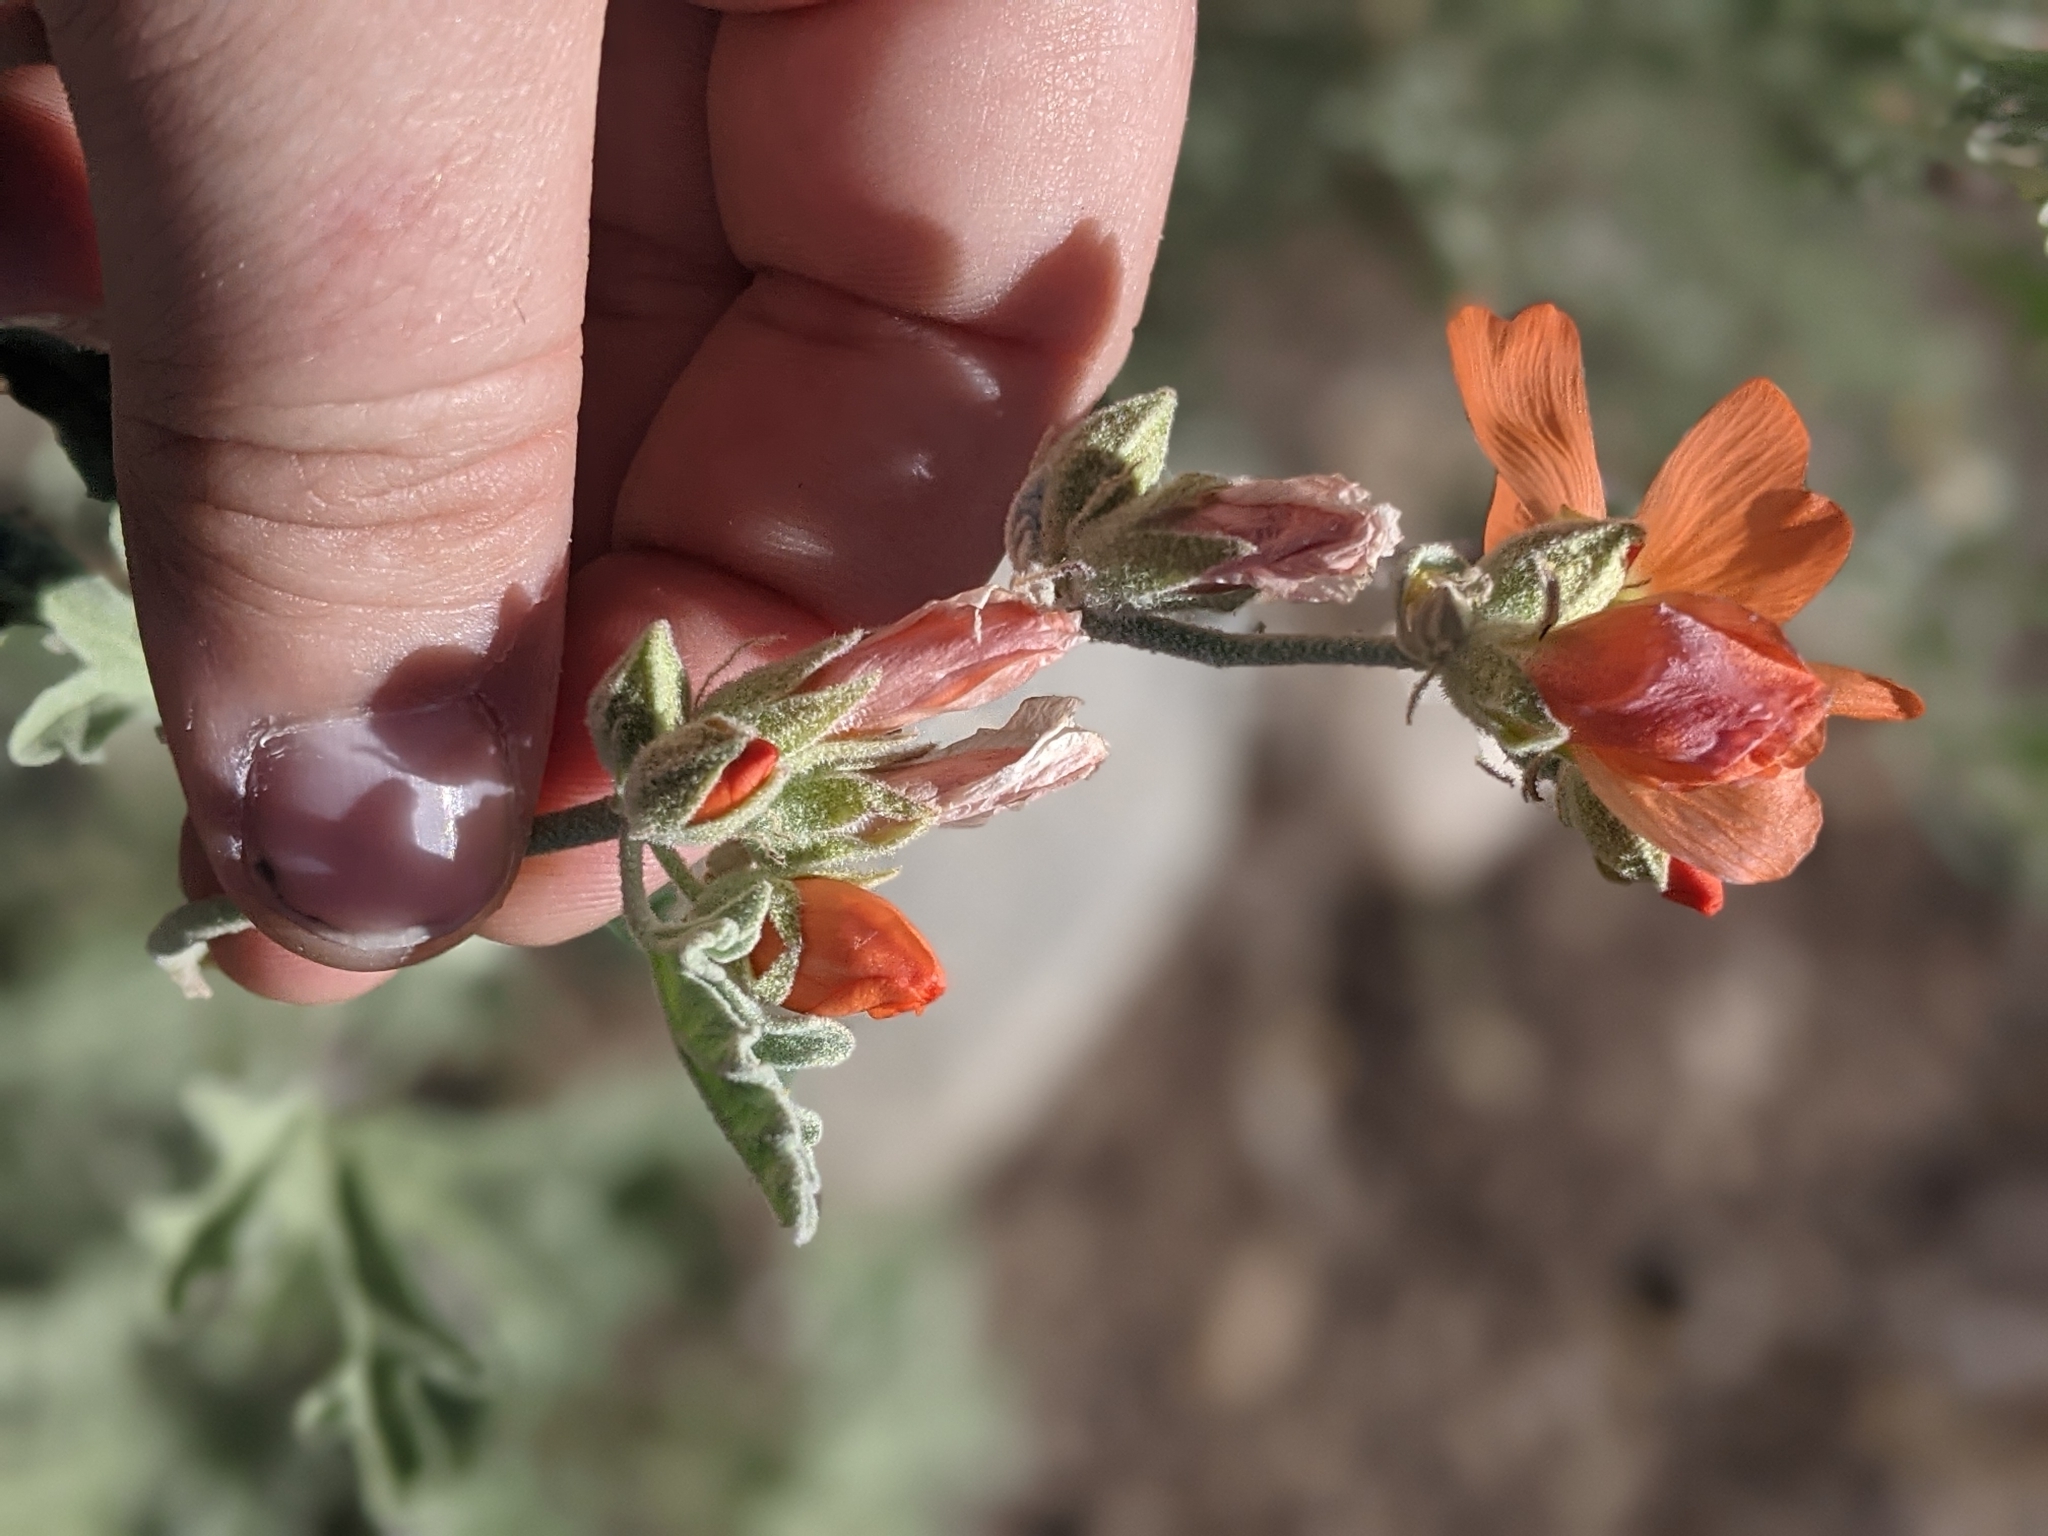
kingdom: Plantae
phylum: Tracheophyta
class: Magnoliopsida
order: Malvales
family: Malvaceae
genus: Sphaeralcea
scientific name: Sphaeralcea grossulariifolia
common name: Current-leaf globe-mallow
